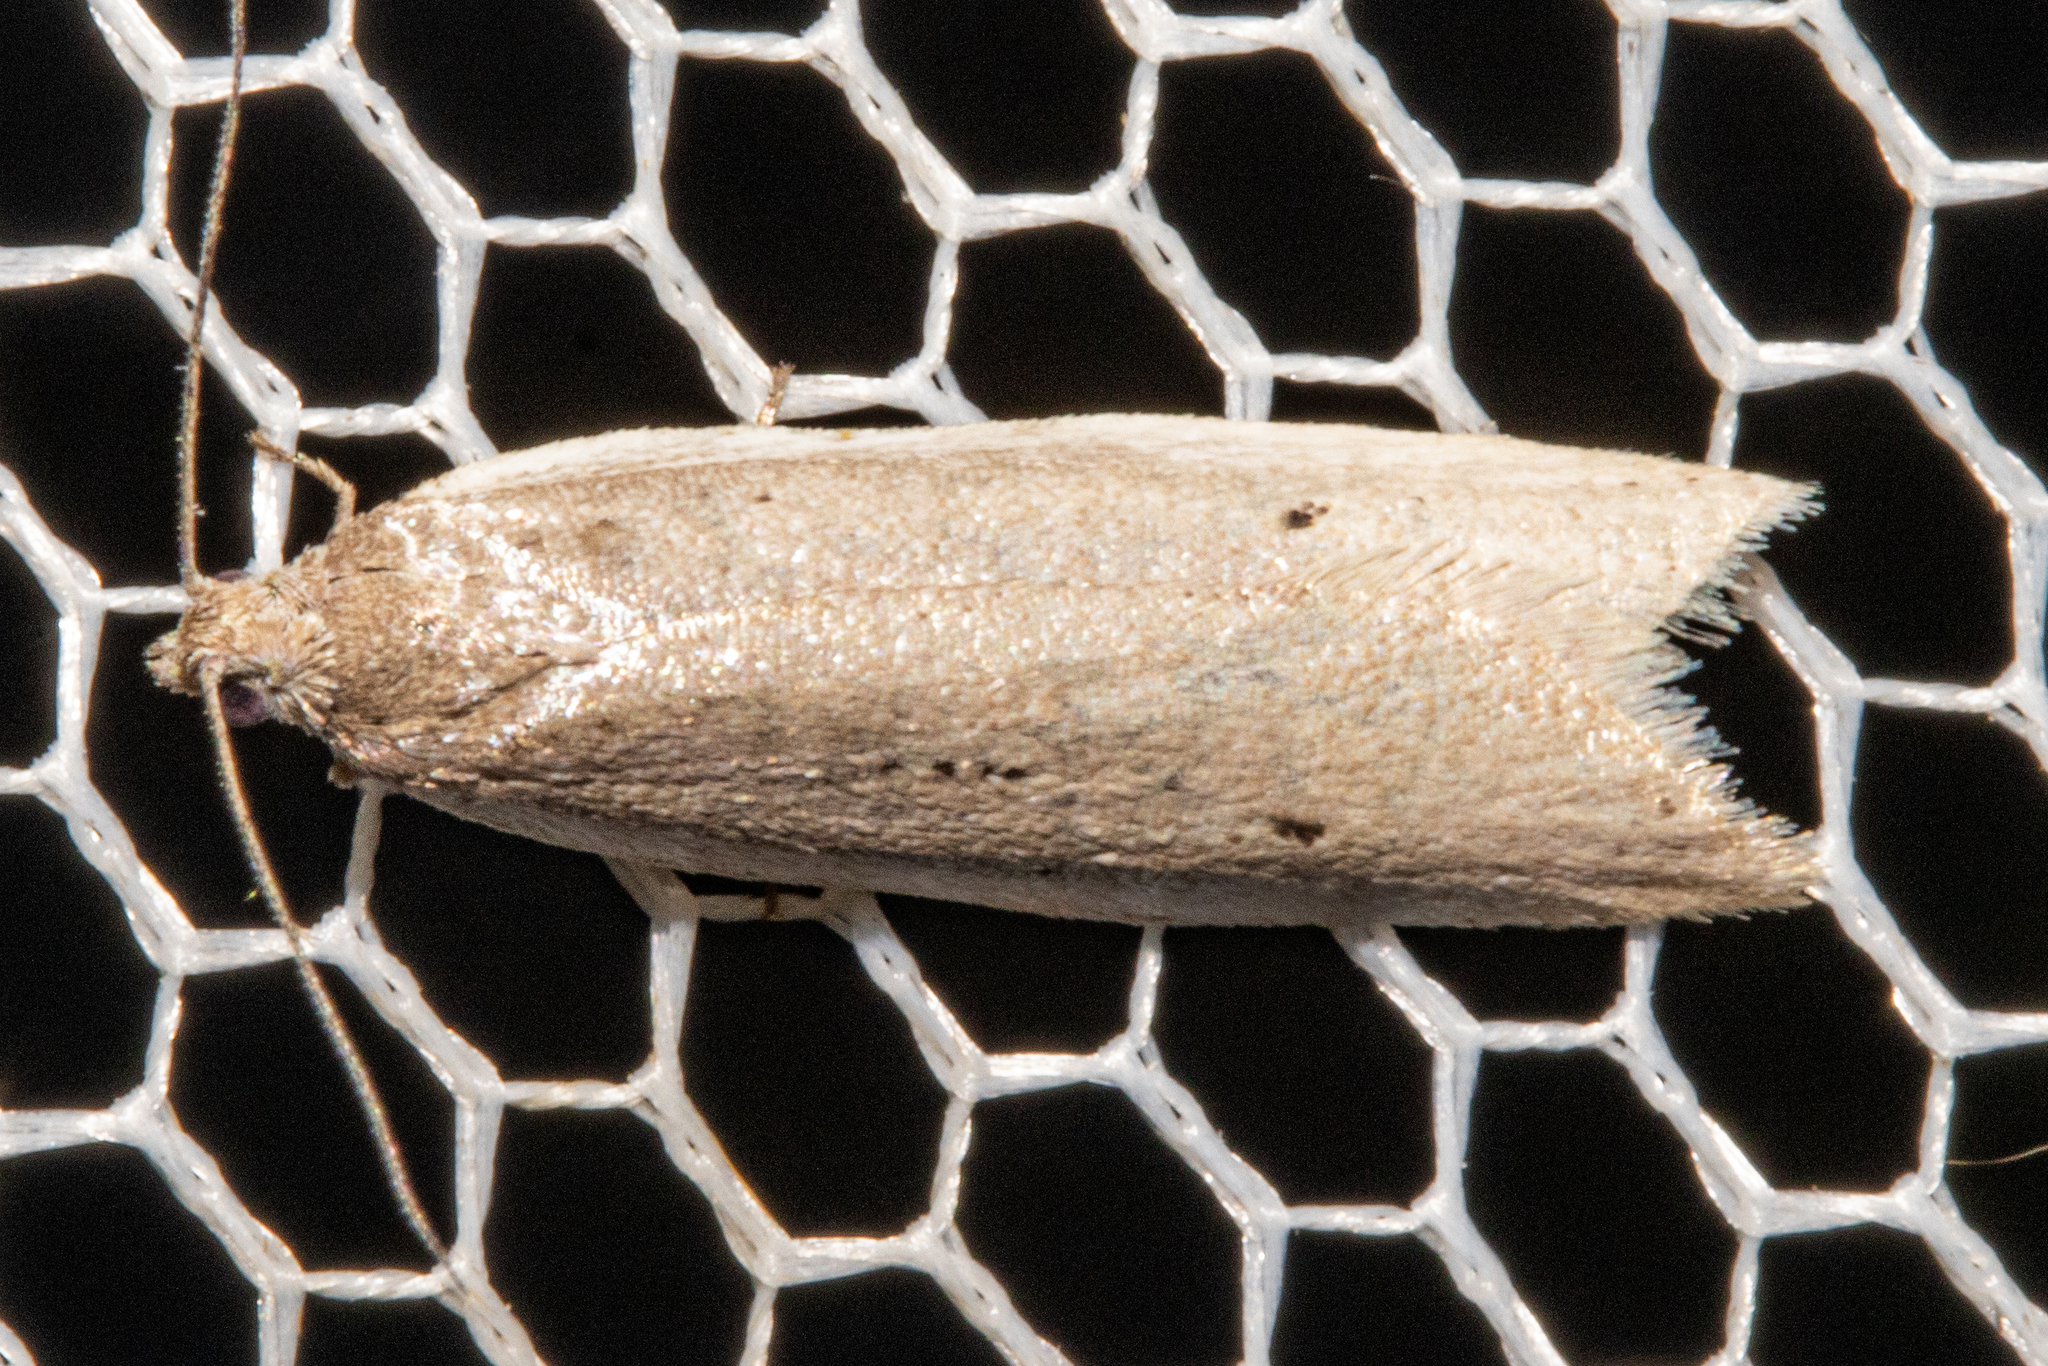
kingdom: Animalia
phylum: Arthropoda
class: Insecta
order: Lepidoptera
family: Tortricidae
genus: Ericodesma
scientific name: Ericodesma melanosperma
